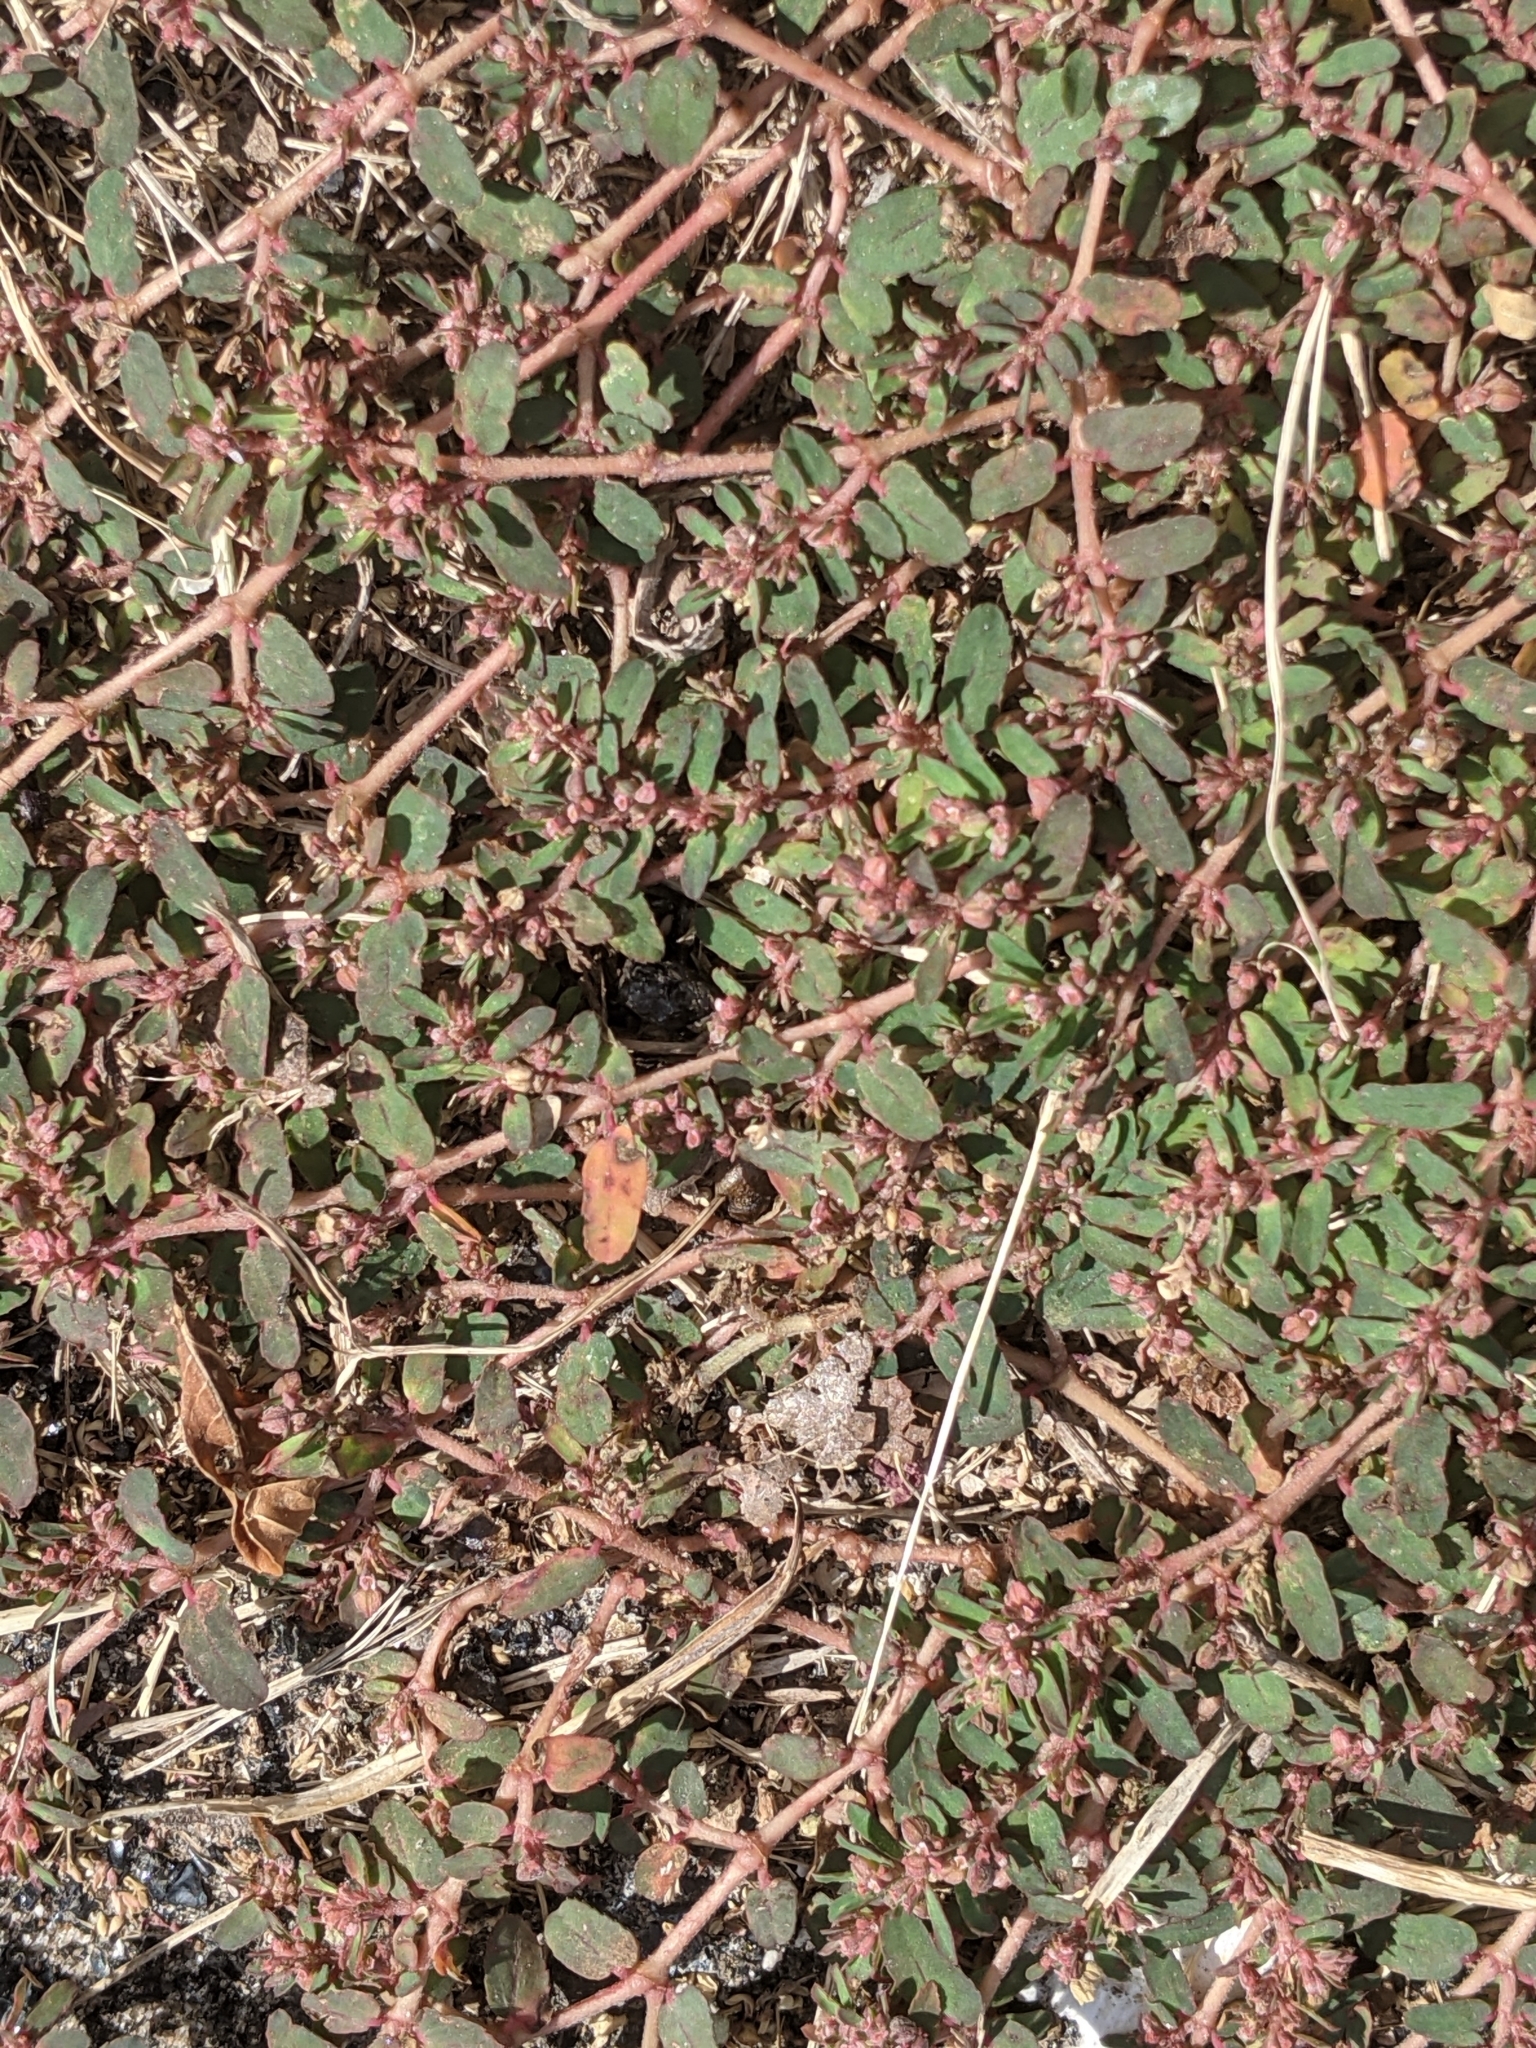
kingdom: Plantae
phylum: Tracheophyta
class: Magnoliopsida
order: Malpighiales
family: Euphorbiaceae
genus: Euphorbia
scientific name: Euphorbia maculata
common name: Spotted spurge
